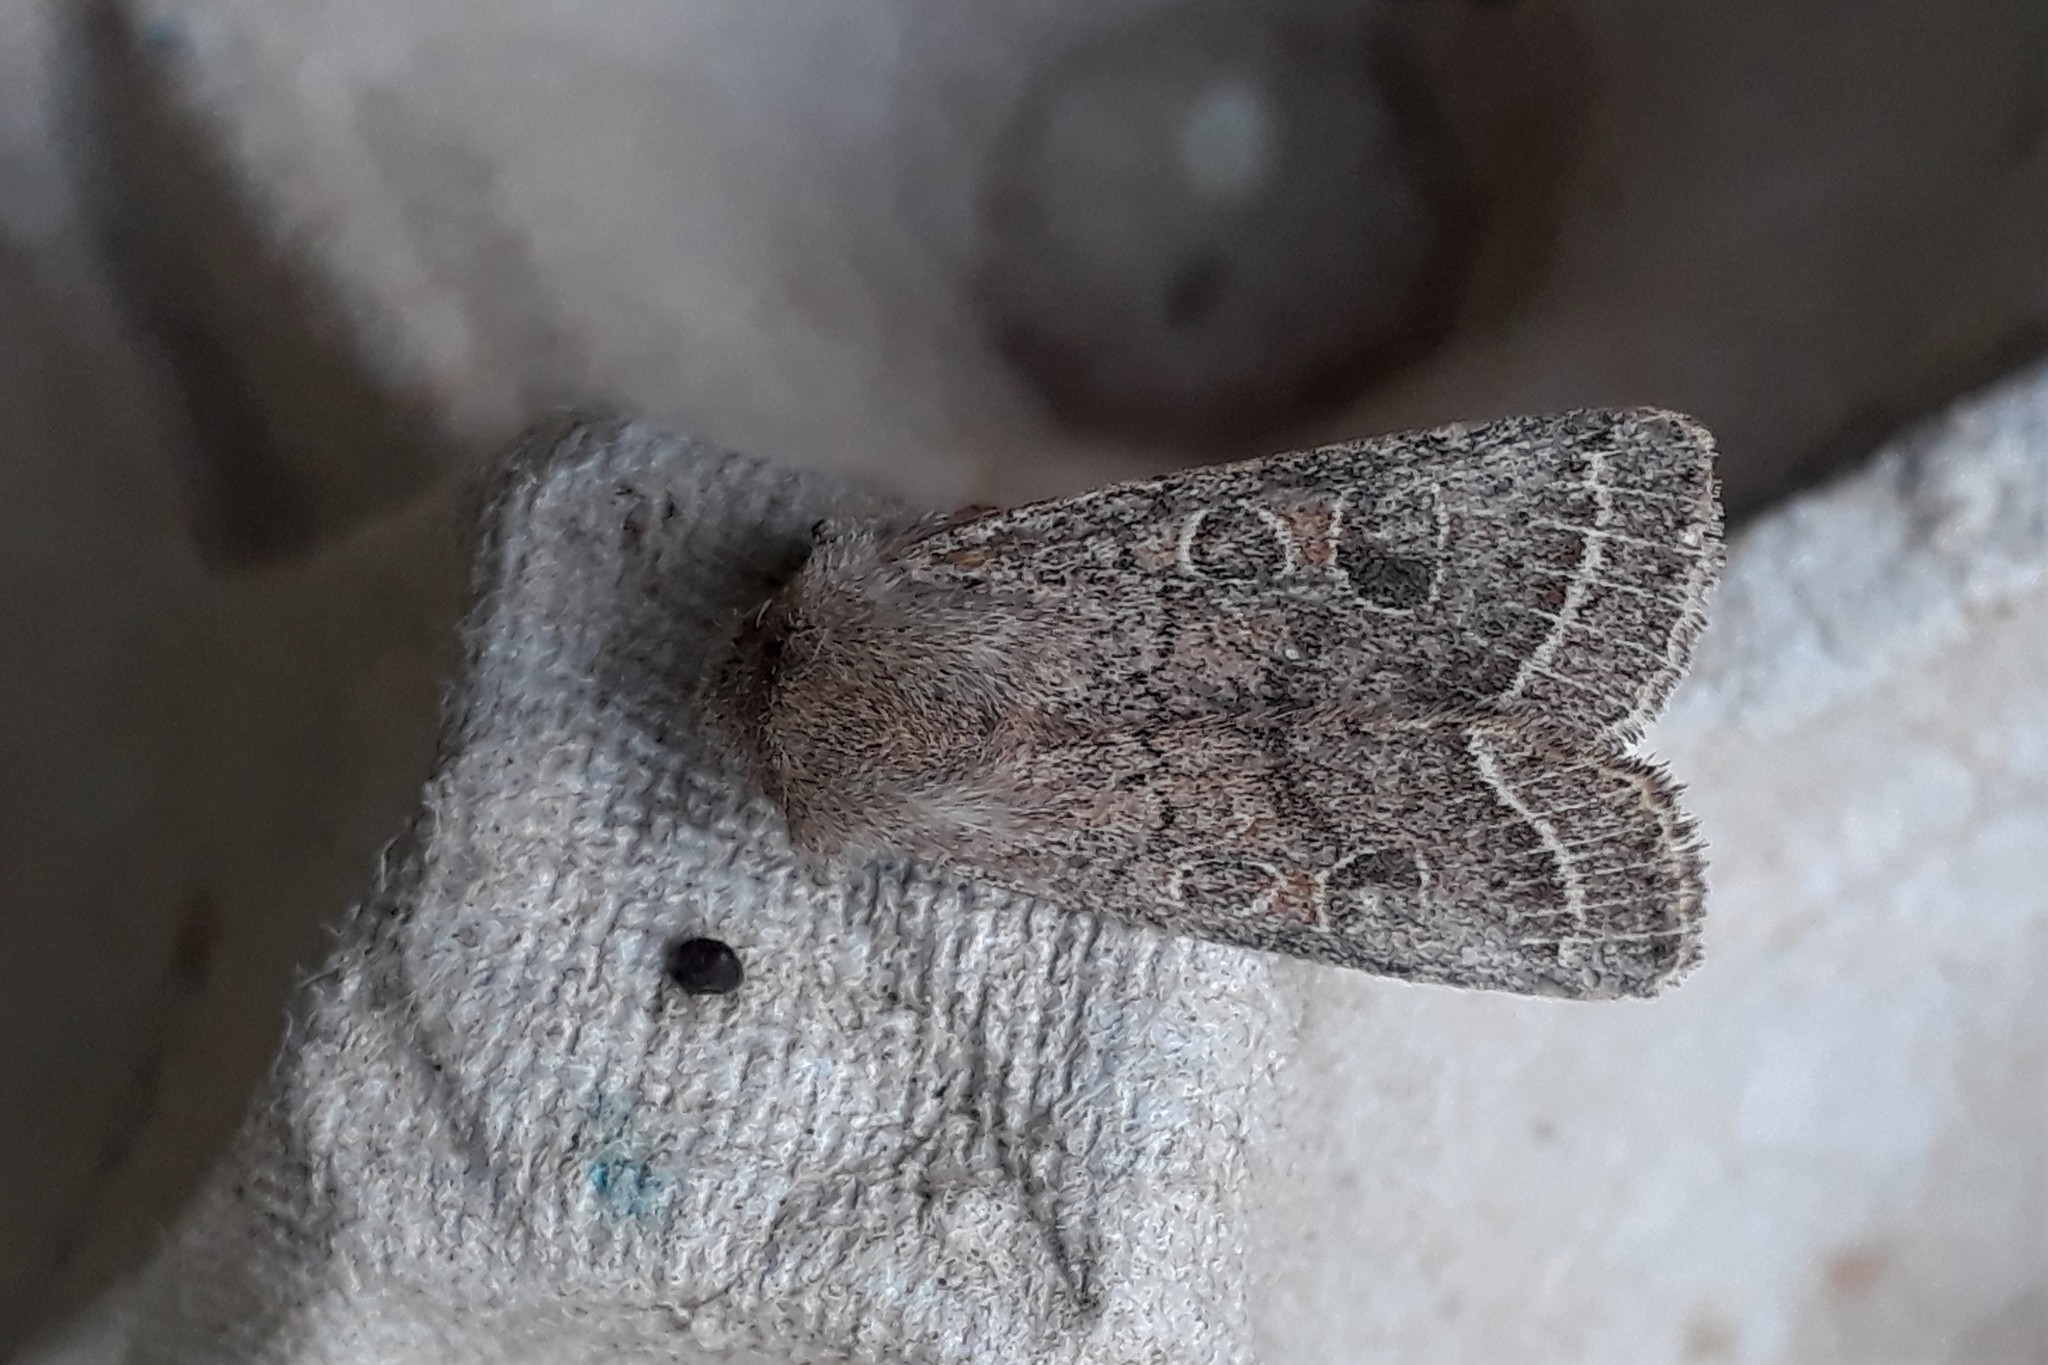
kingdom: Animalia
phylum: Arthropoda
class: Insecta
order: Lepidoptera
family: Noctuidae
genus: Orthosia
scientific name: Orthosia cerasi
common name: Common quaker
